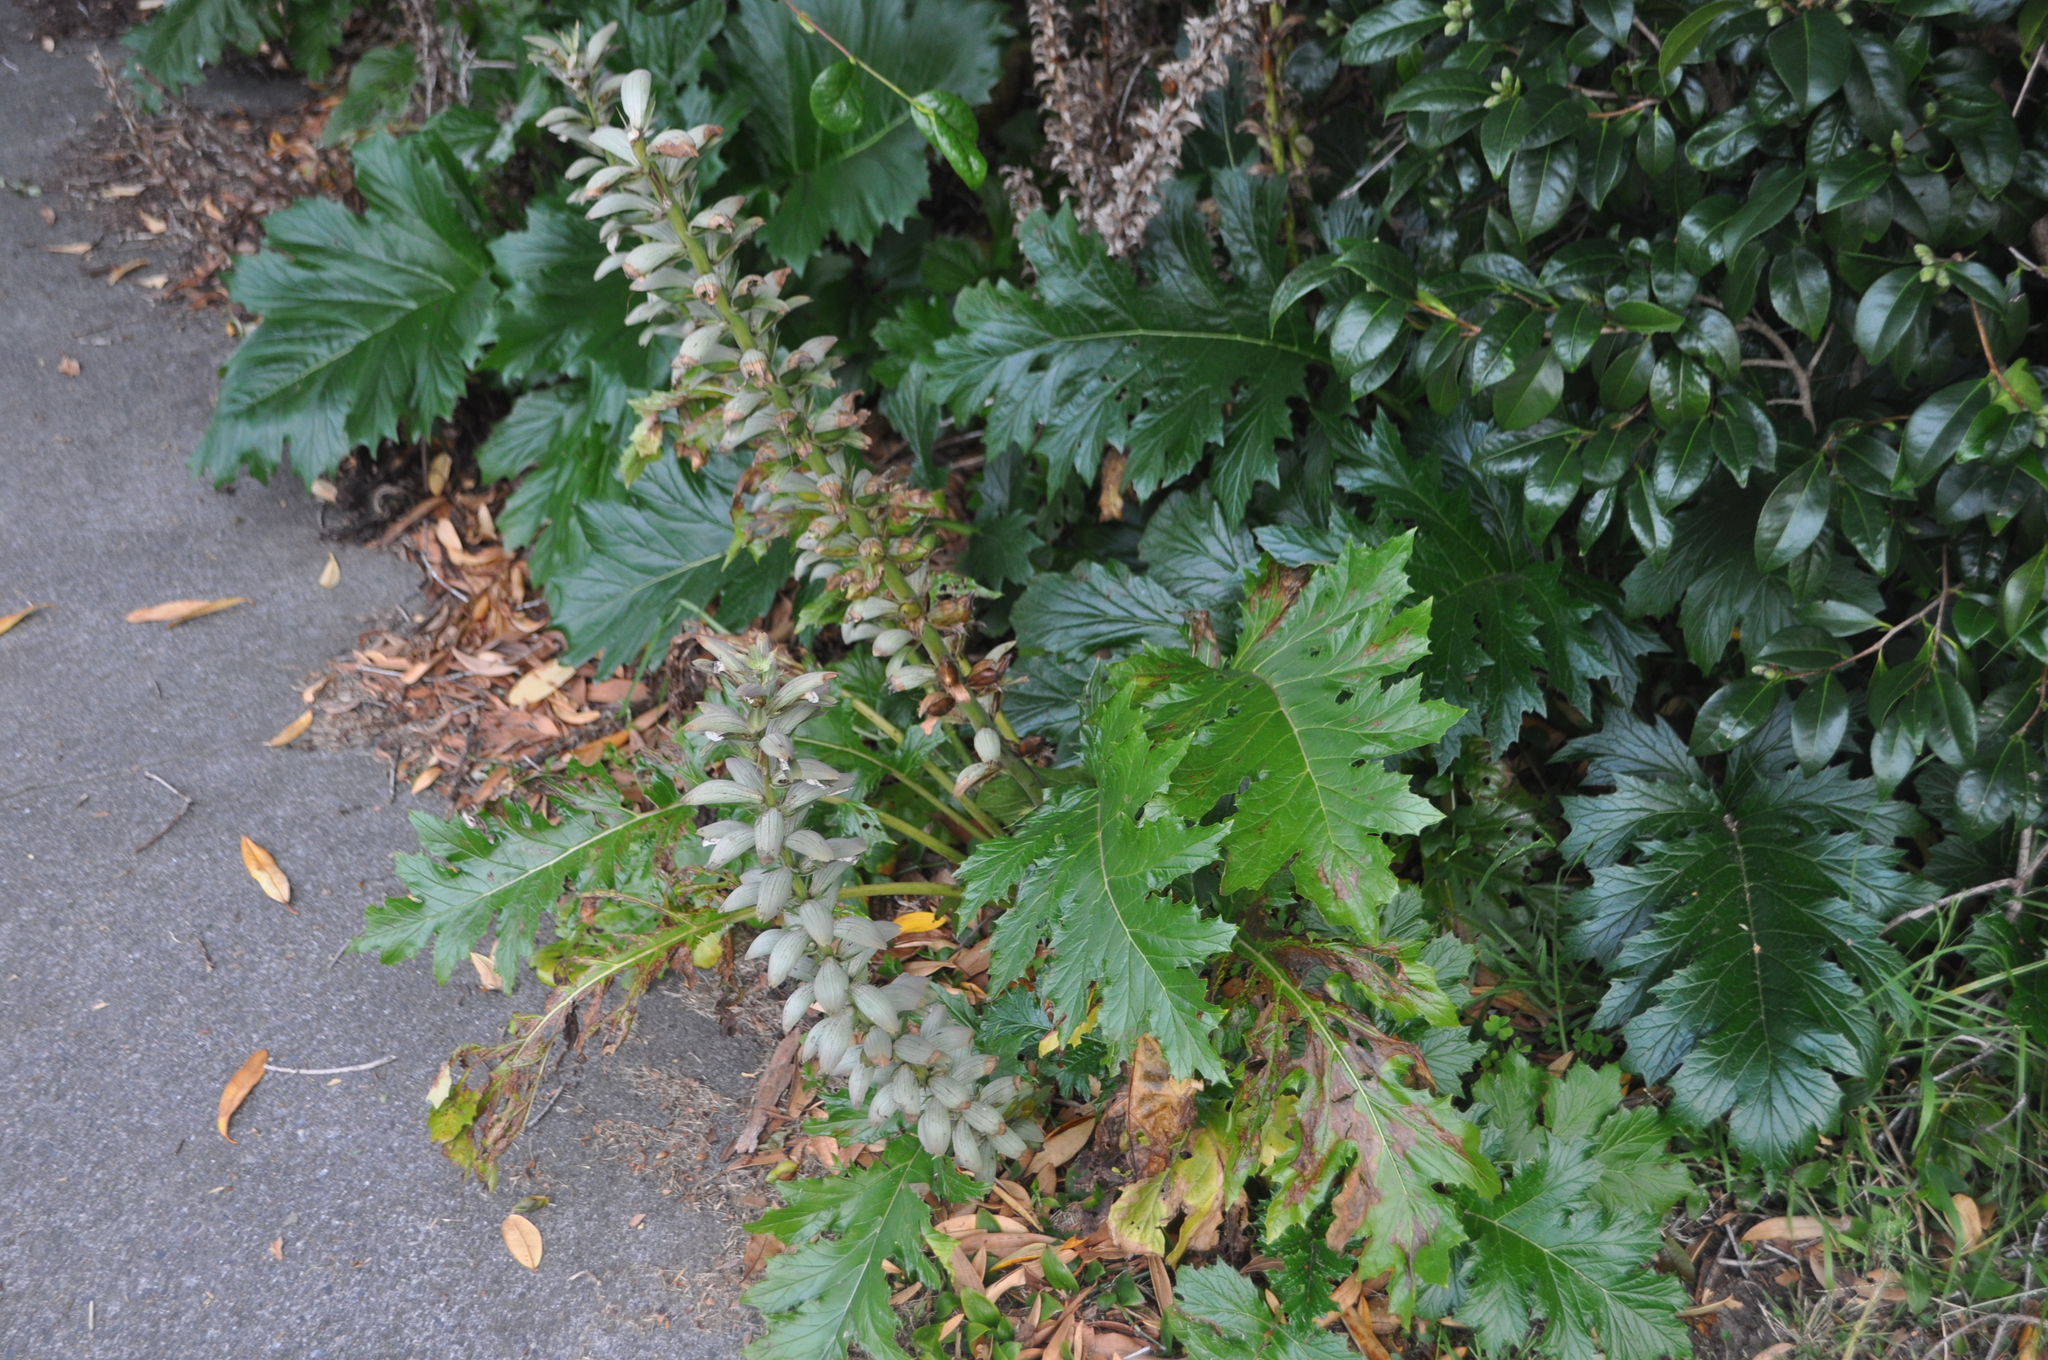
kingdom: Plantae
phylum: Tracheophyta
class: Magnoliopsida
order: Lamiales
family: Acanthaceae
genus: Acanthus
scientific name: Acanthus mollis
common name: Bear's-breech
